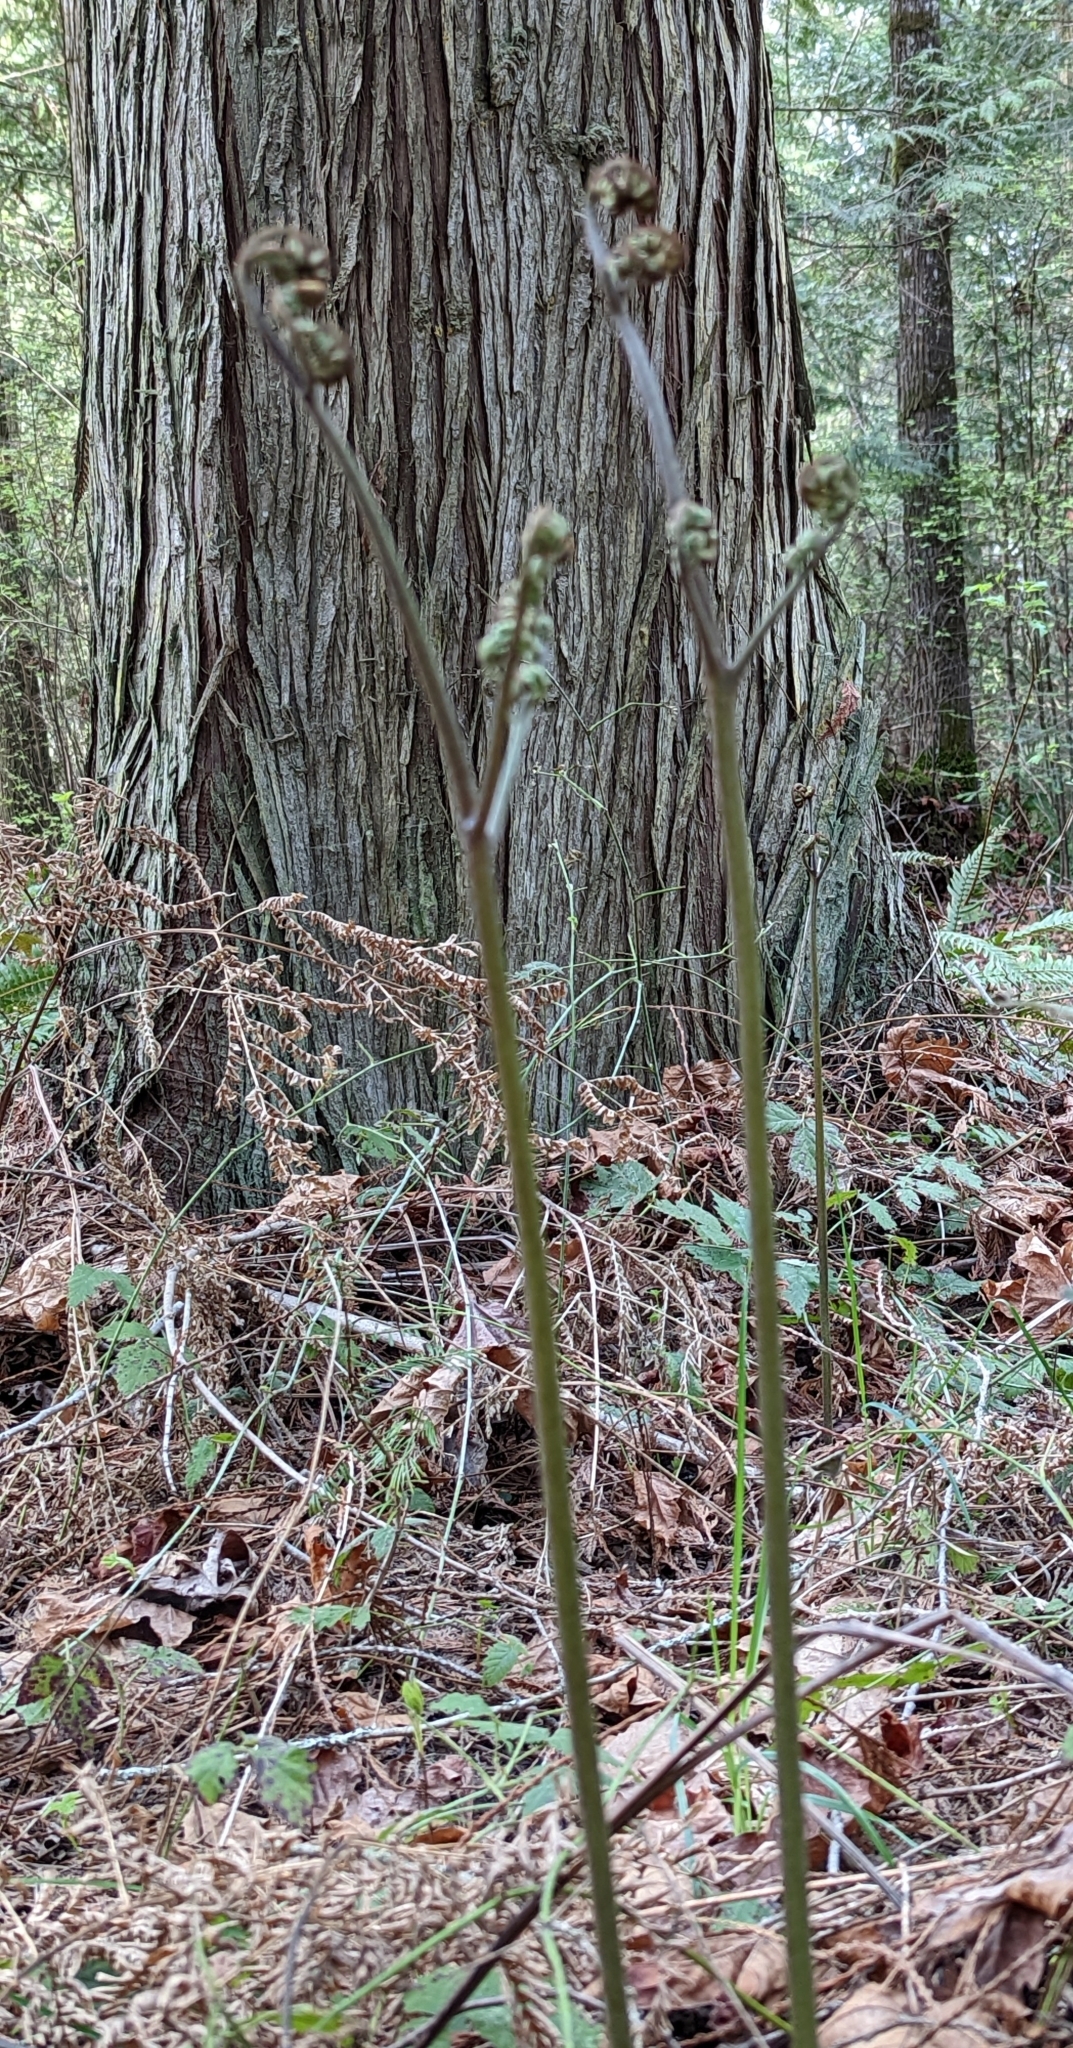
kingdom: Plantae
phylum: Tracheophyta
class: Polypodiopsida
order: Polypodiales
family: Dennstaedtiaceae
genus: Pteridium
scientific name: Pteridium aquilinum
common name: Bracken
